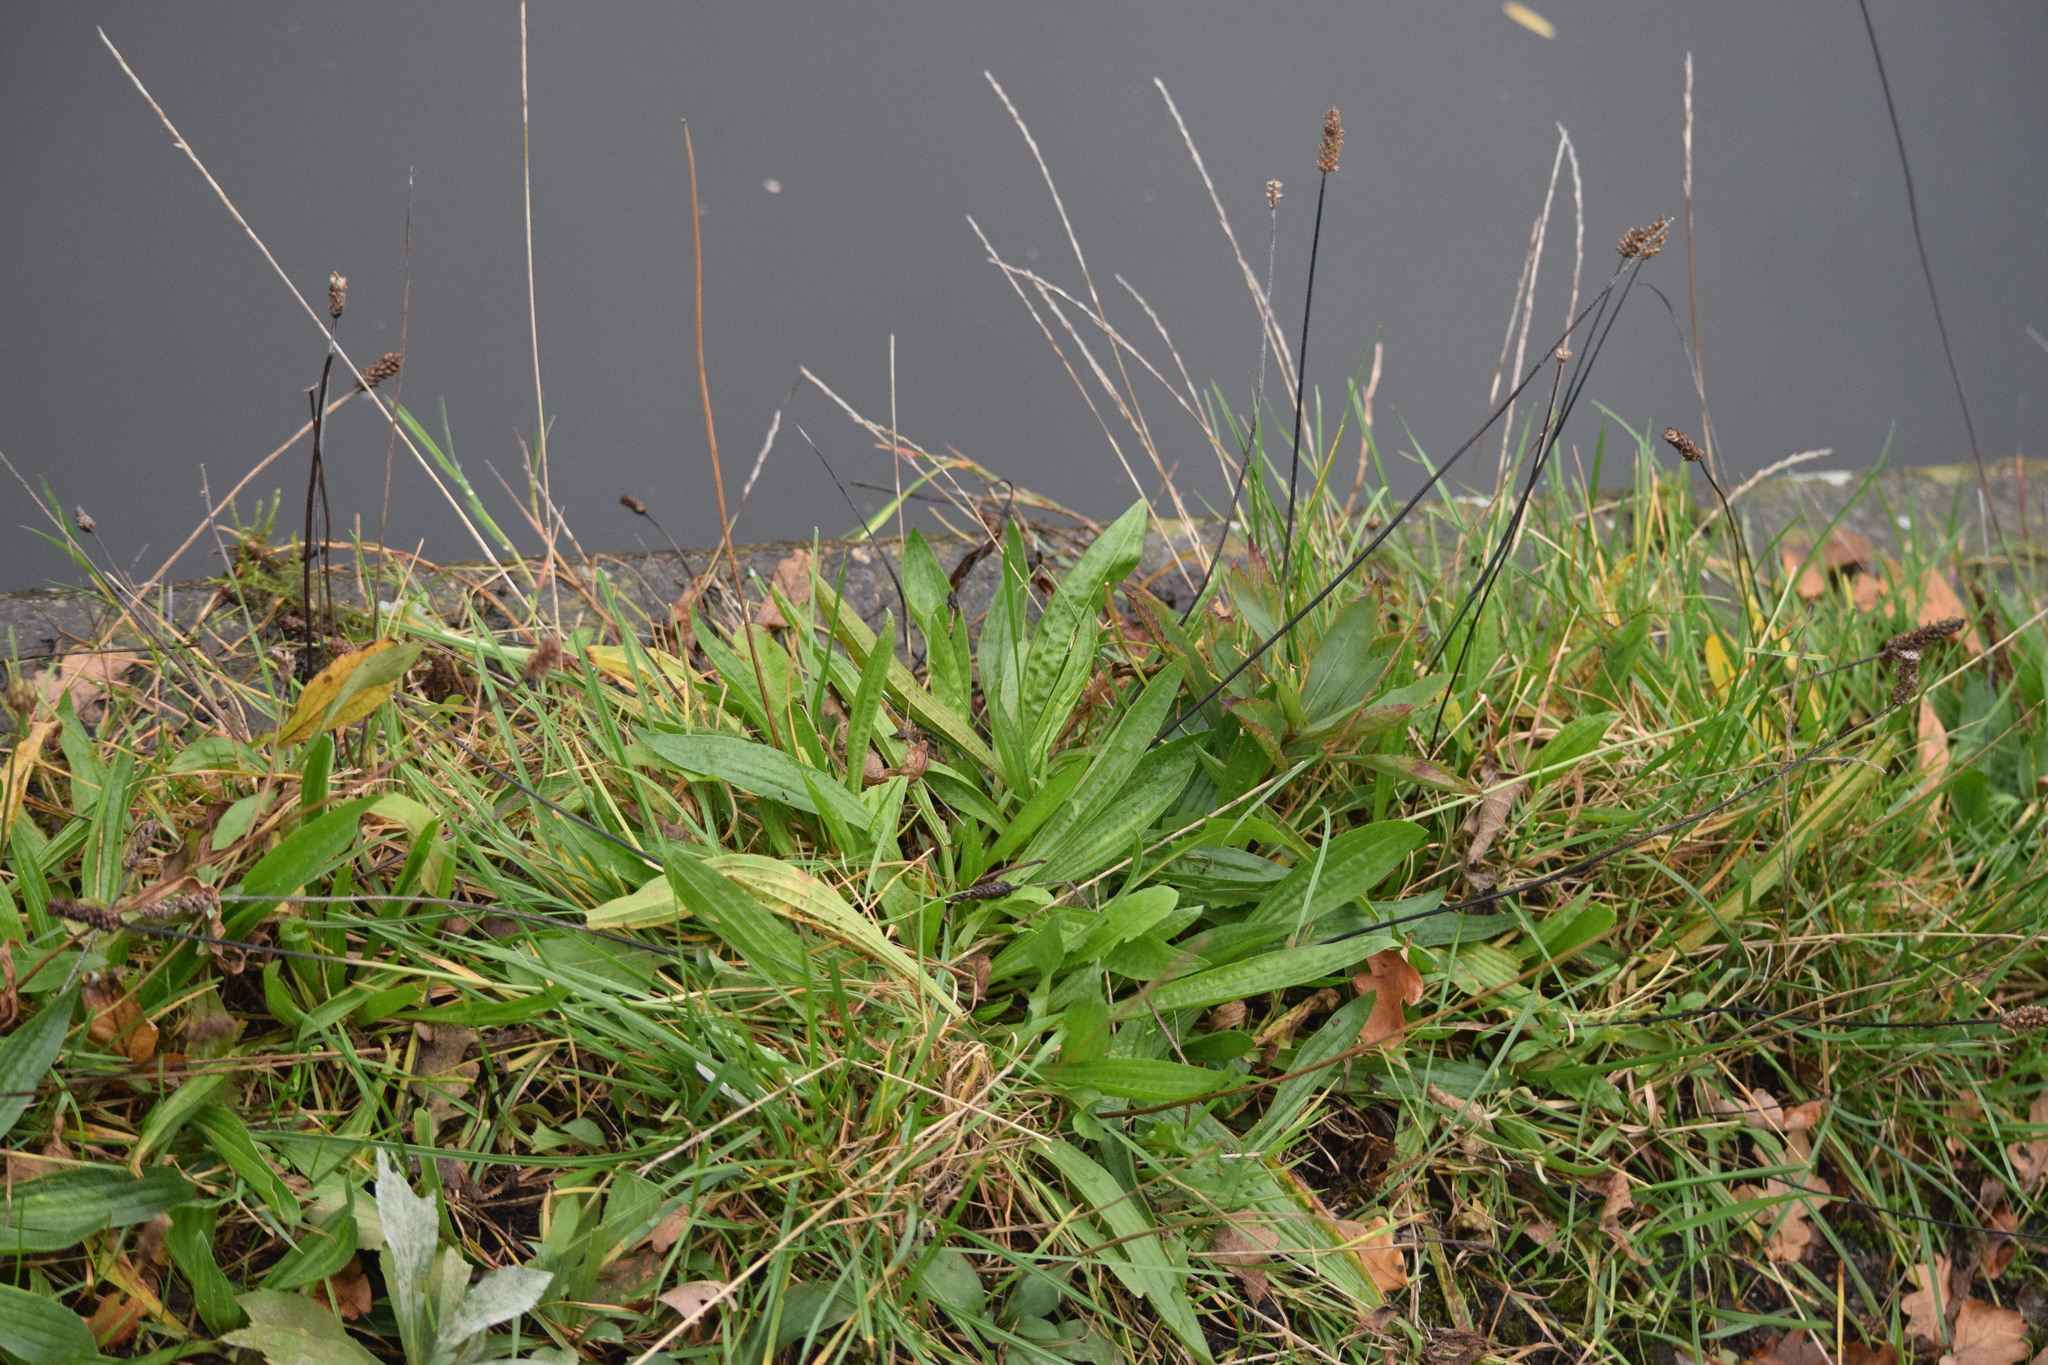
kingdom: Plantae
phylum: Tracheophyta
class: Magnoliopsida
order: Lamiales
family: Plantaginaceae
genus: Plantago
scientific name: Plantago lanceolata
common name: Ribwort plantain
